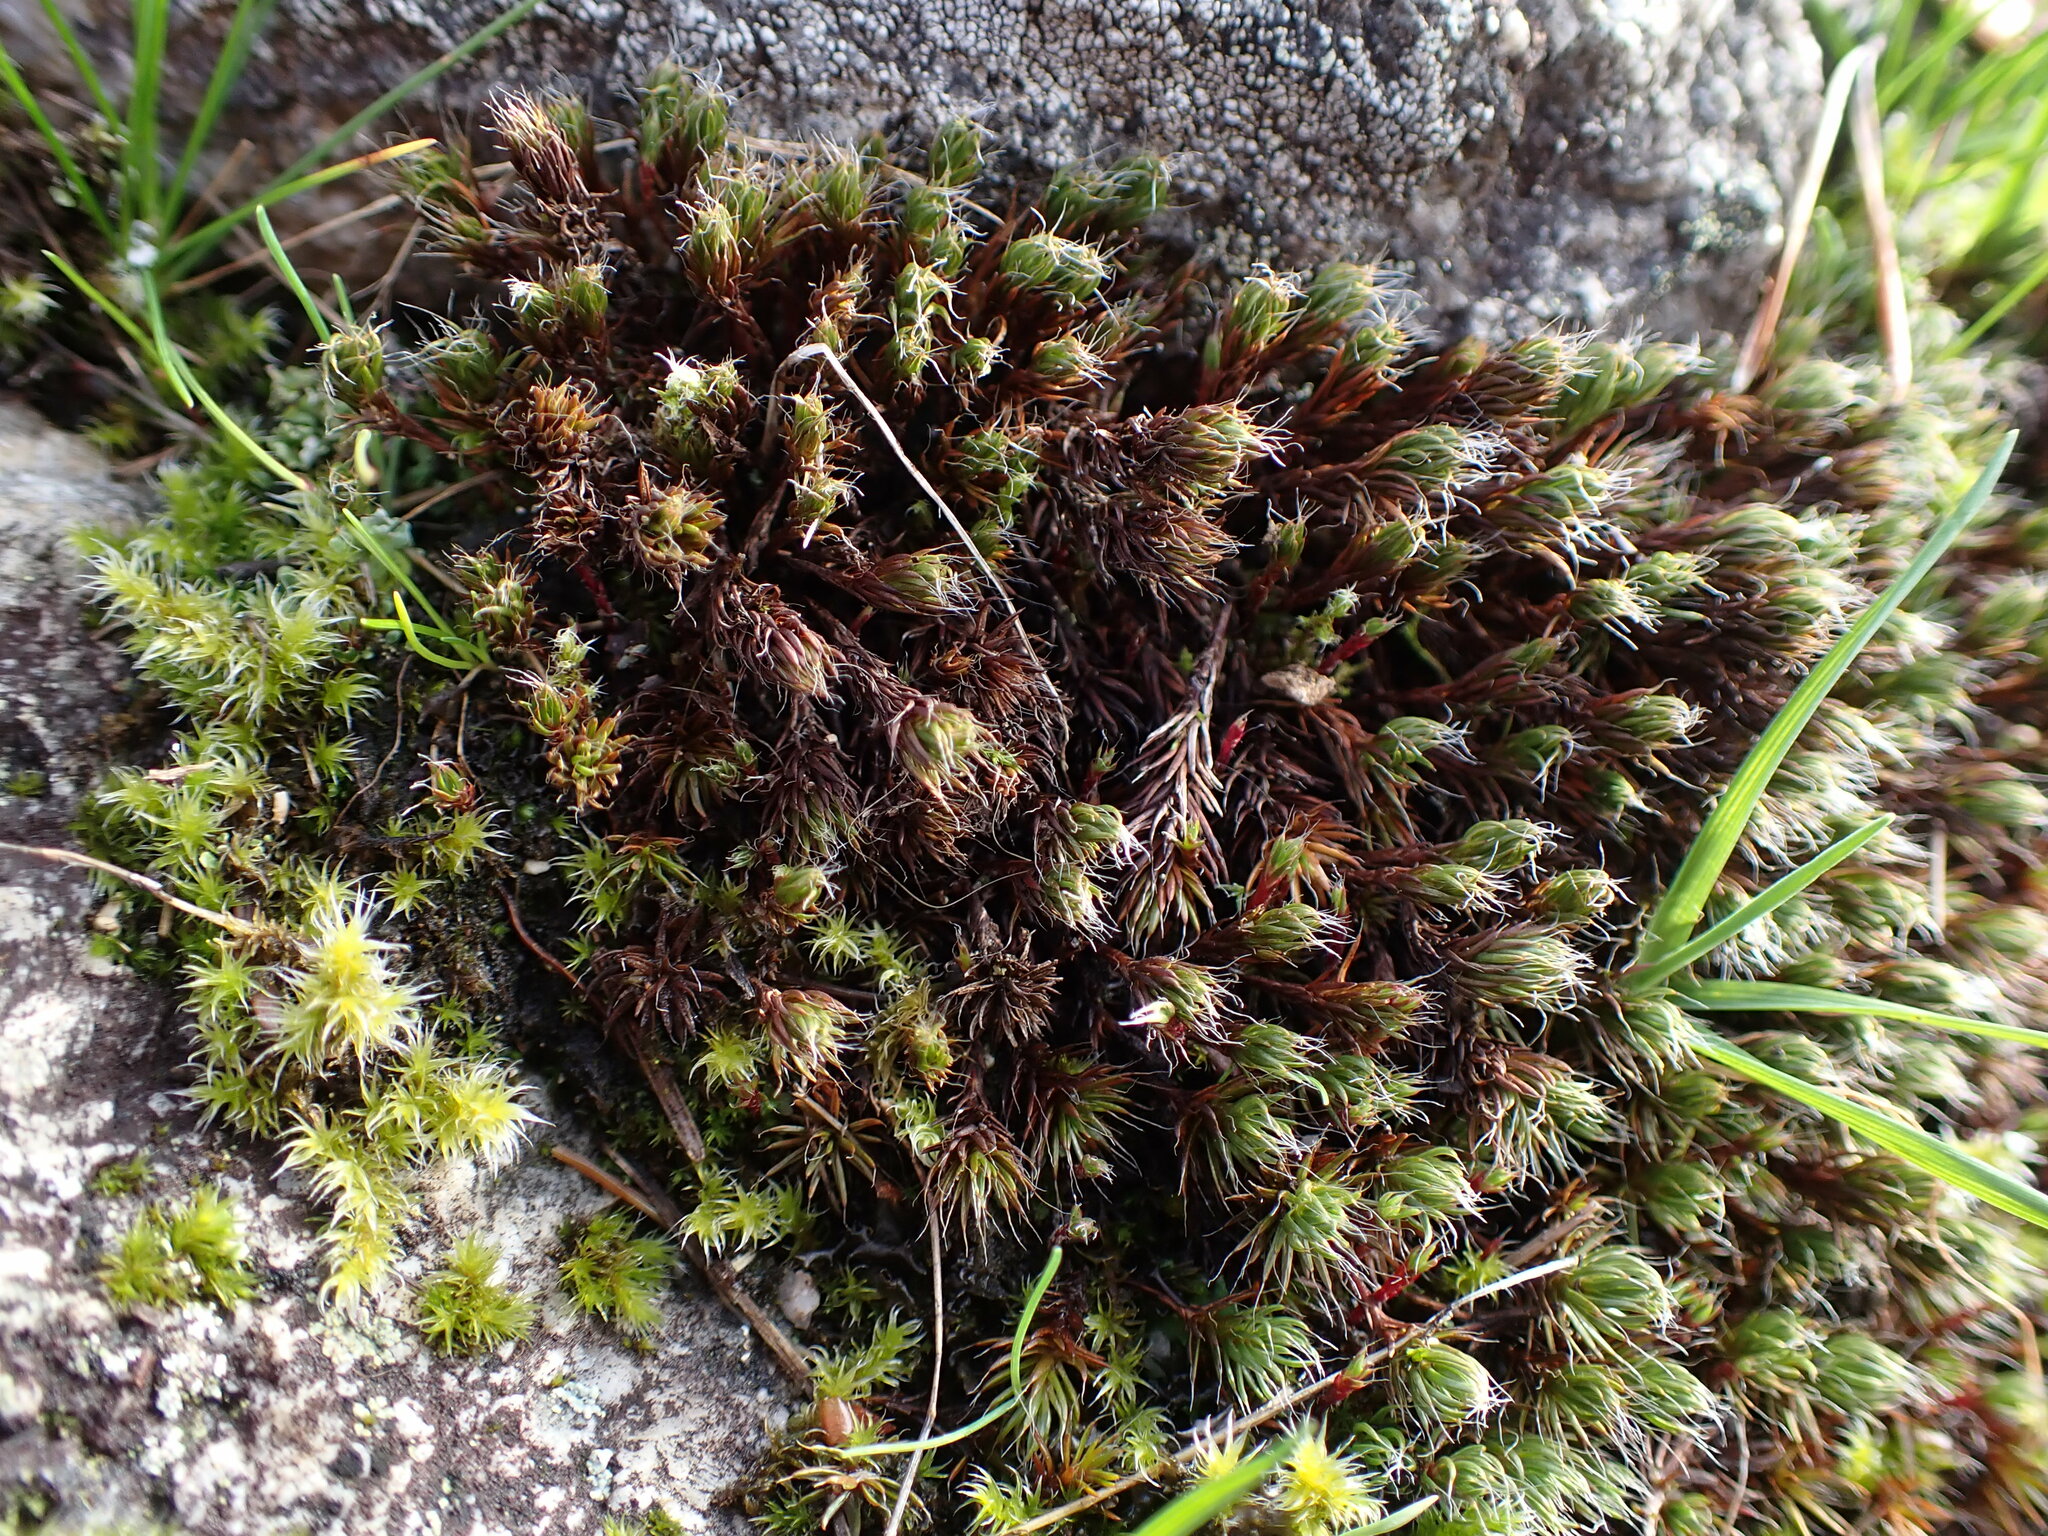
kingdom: Plantae
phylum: Bryophyta
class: Polytrichopsida
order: Polytrichales
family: Polytrichaceae
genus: Polytrichum
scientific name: Polytrichum piliferum
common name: Bristly haircap
